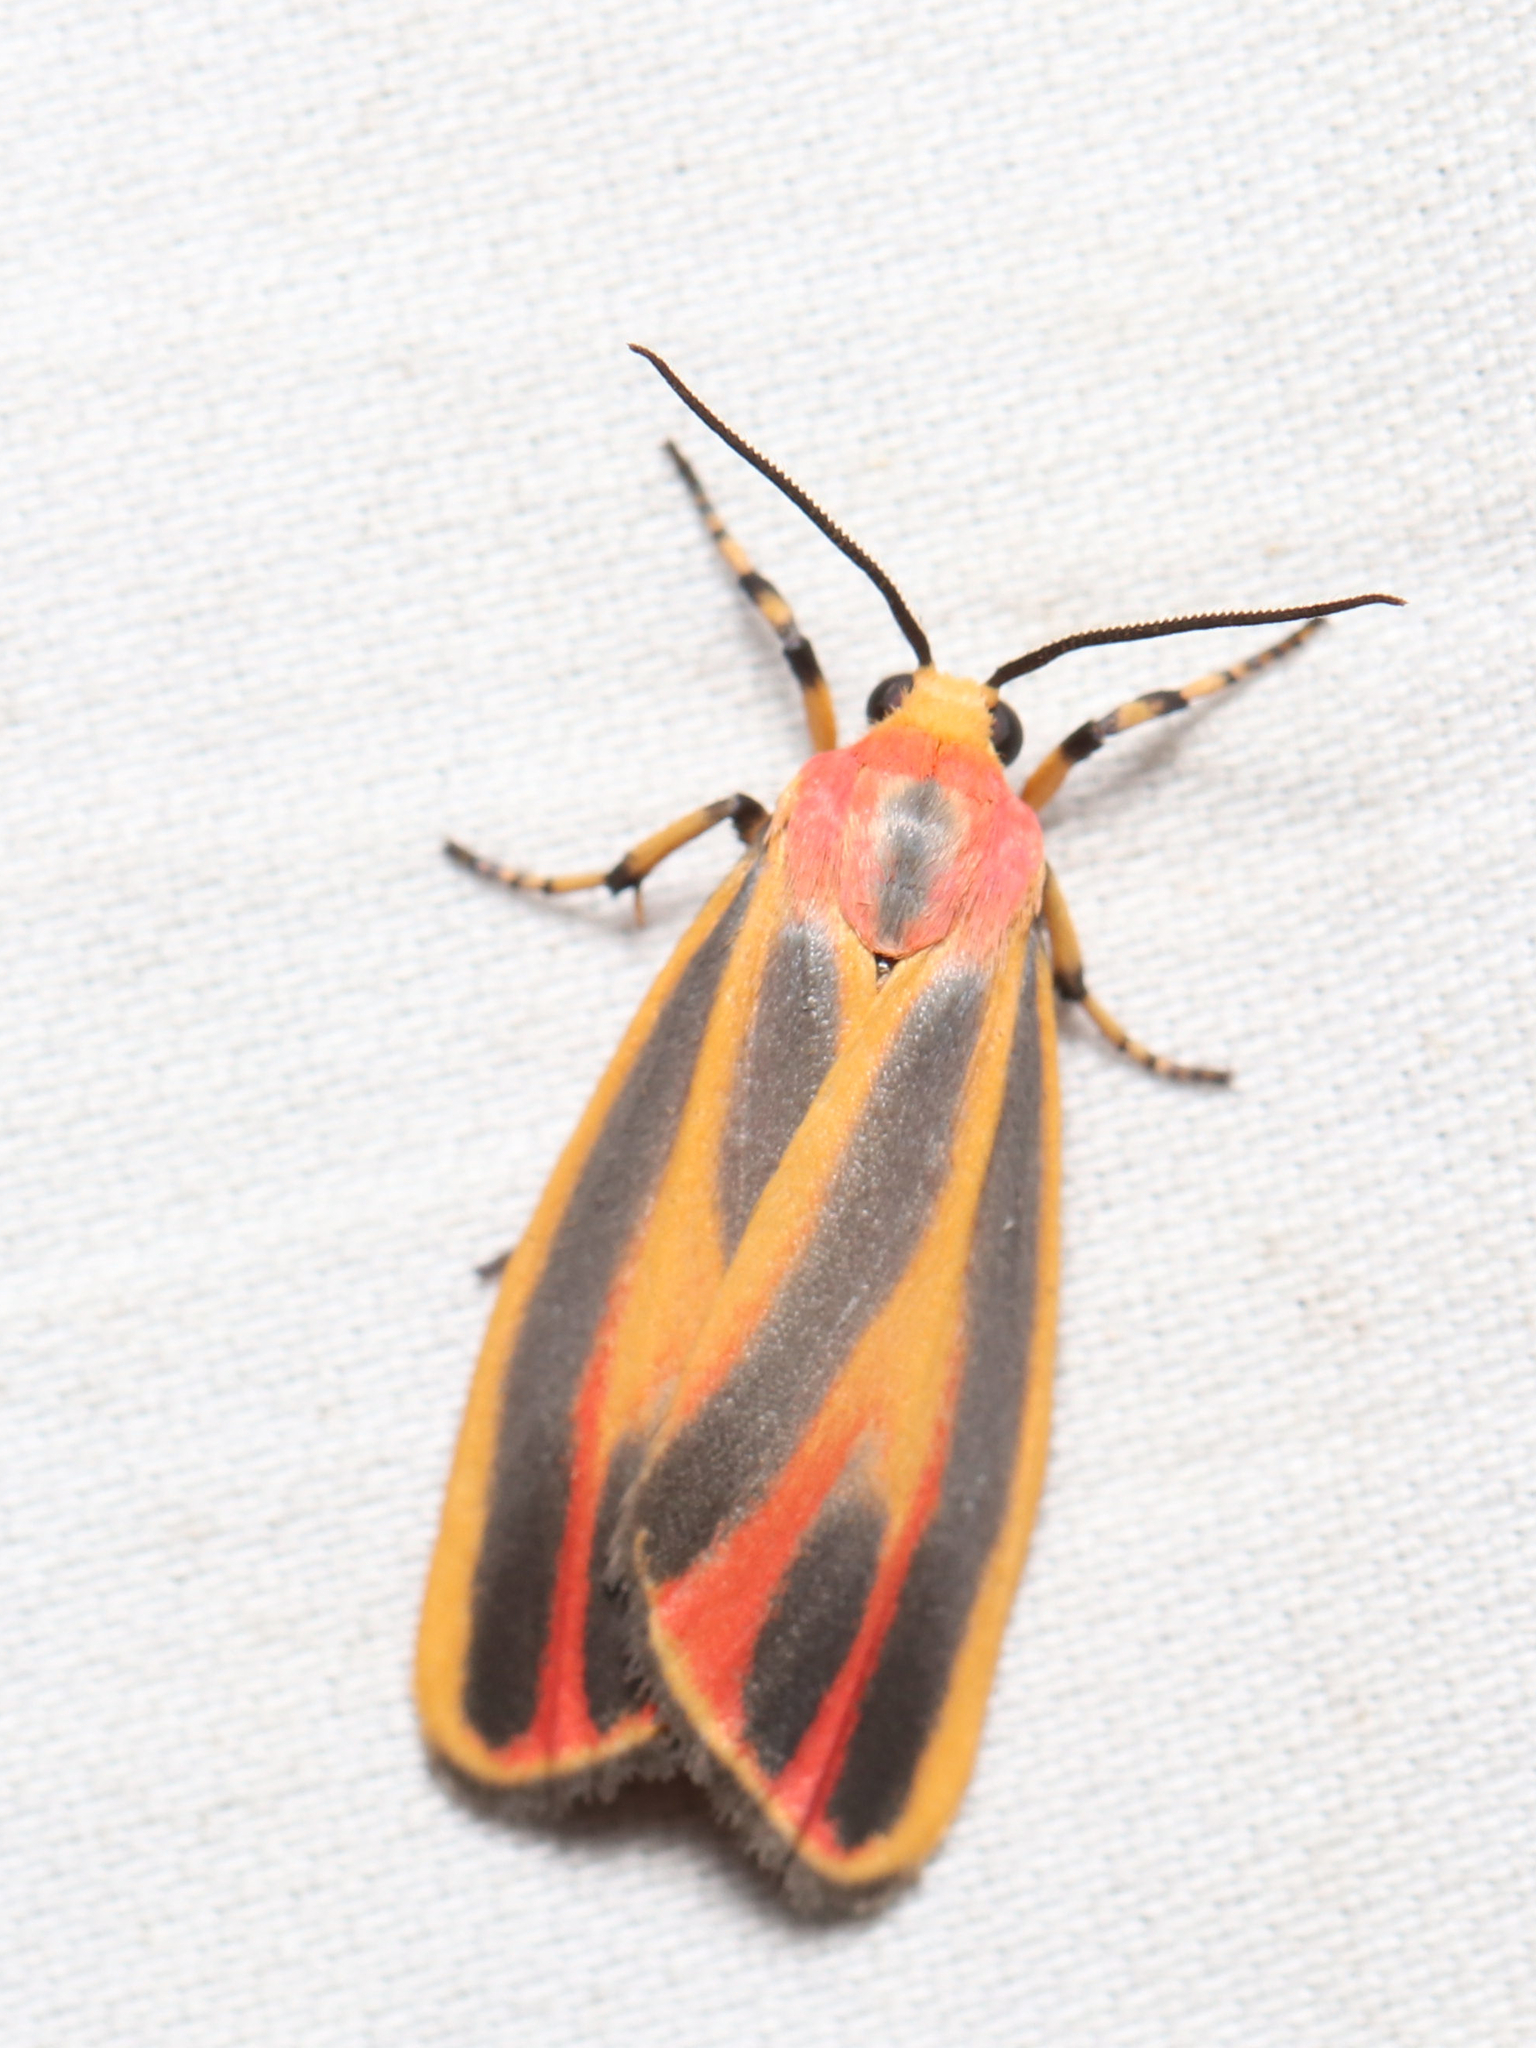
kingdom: Animalia
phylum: Arthropoda
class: Insecta
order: Lepidoptera
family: Erebidae
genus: Hypoprepia
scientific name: Hypoprepia fucosa
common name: Painted lichen moth
